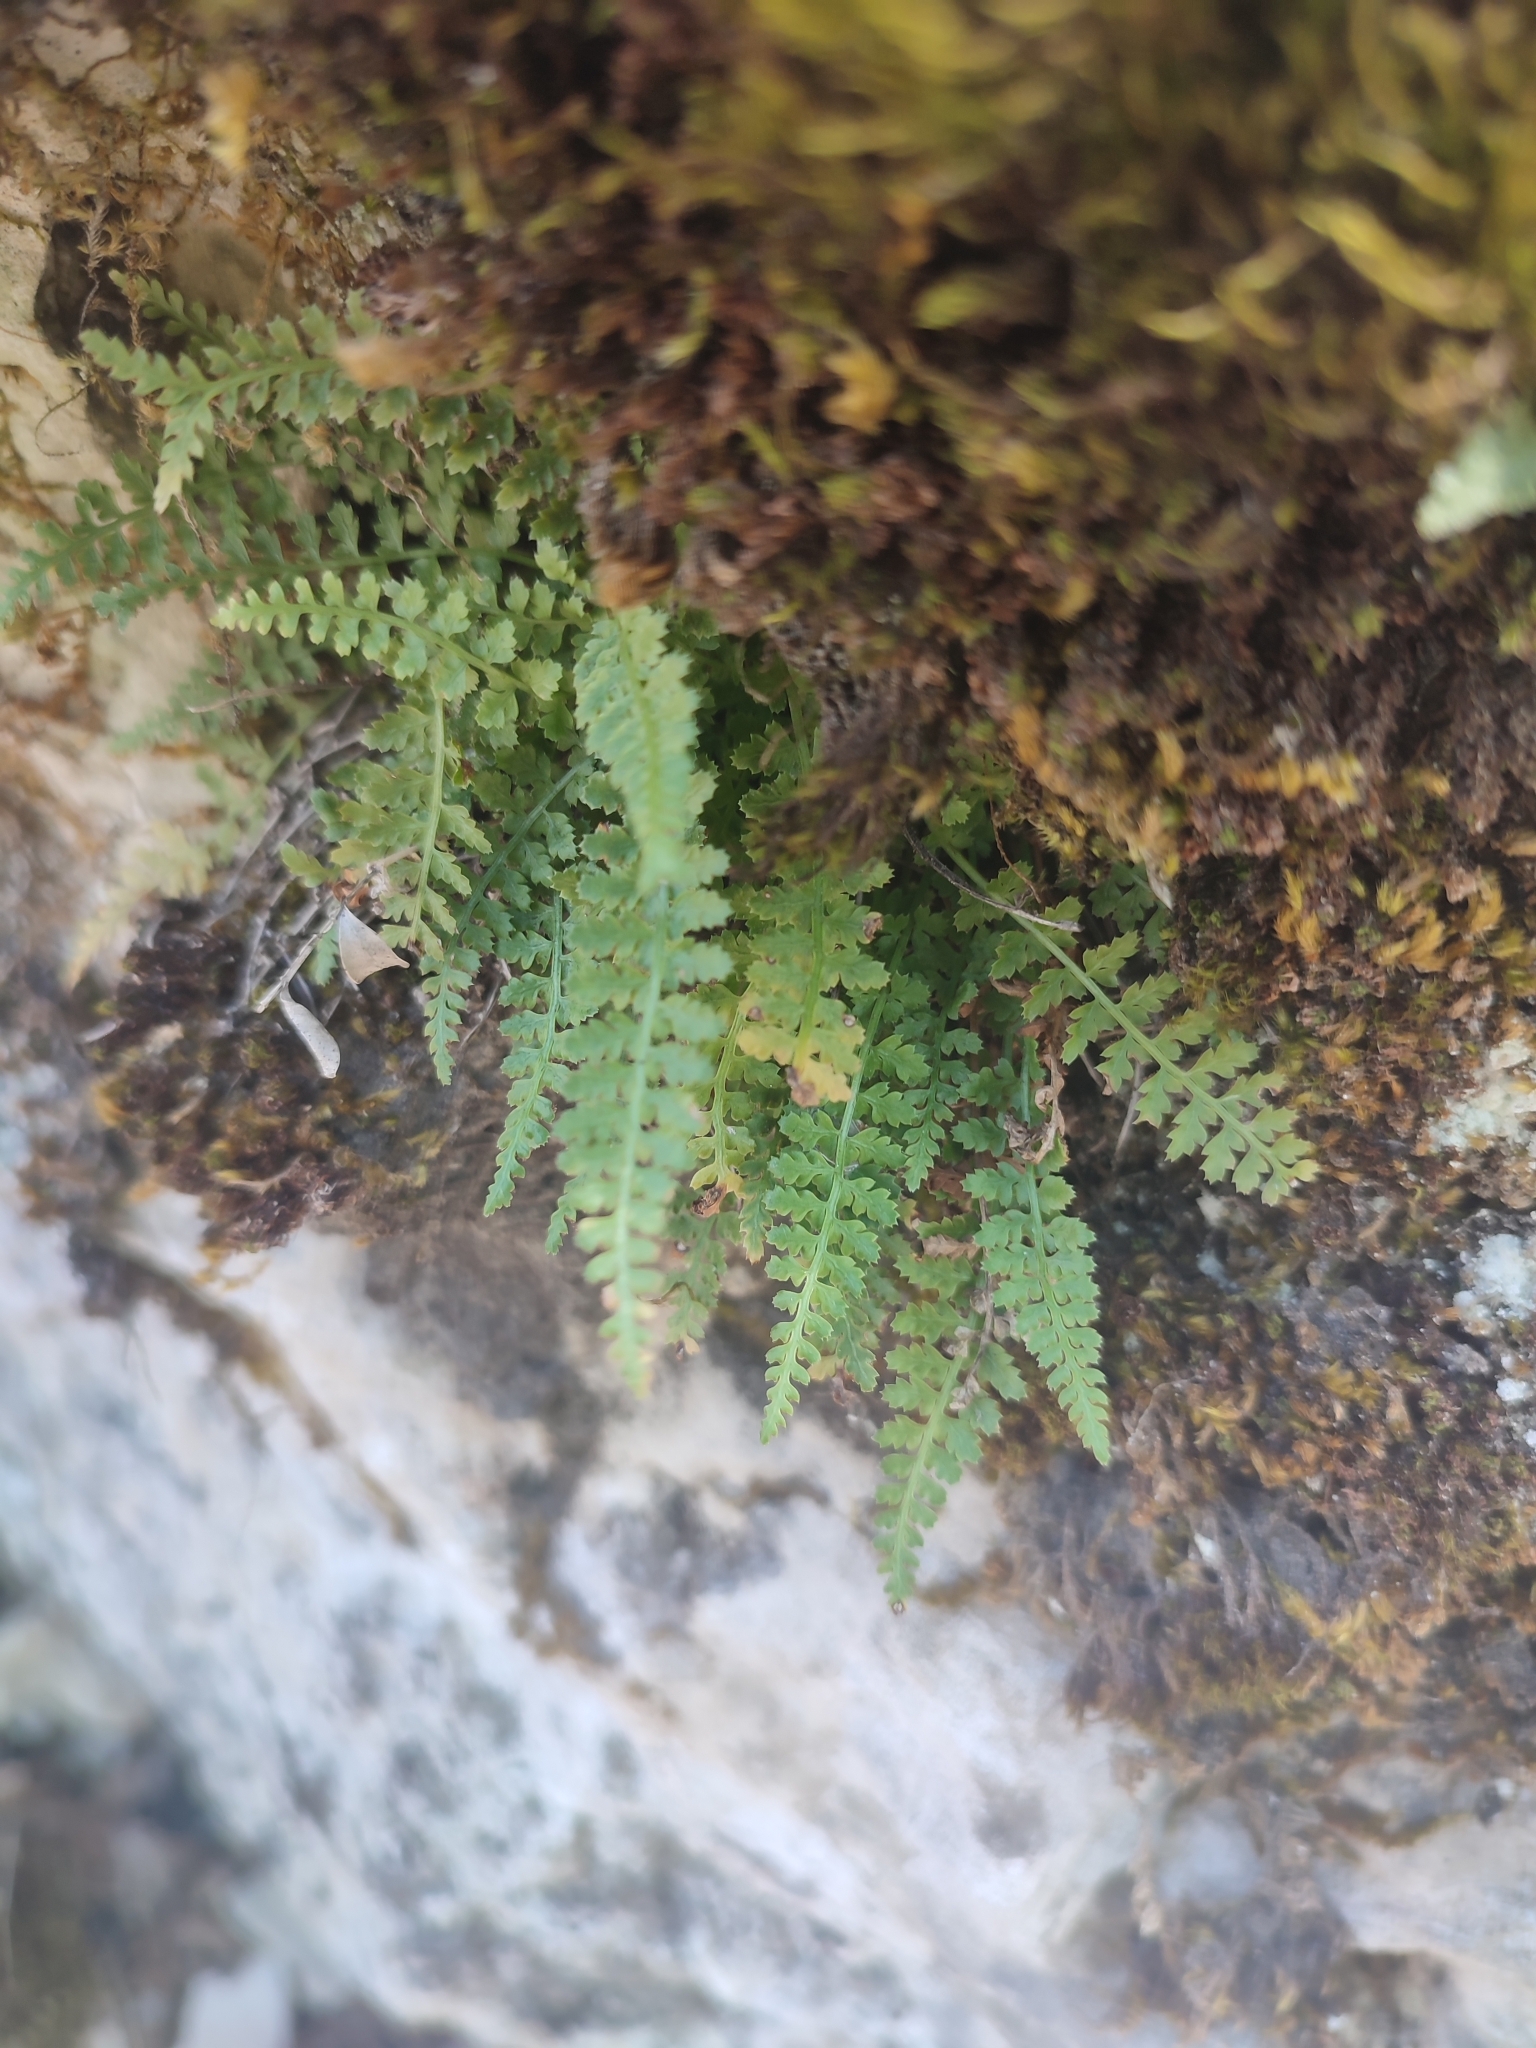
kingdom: Plantae
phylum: Tracheophyta
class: Polypodiopsida
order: Polypodiales
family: Aspleniaceae
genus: Asplenium
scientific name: Asplenium fontanum
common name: Fountain spleenwort
